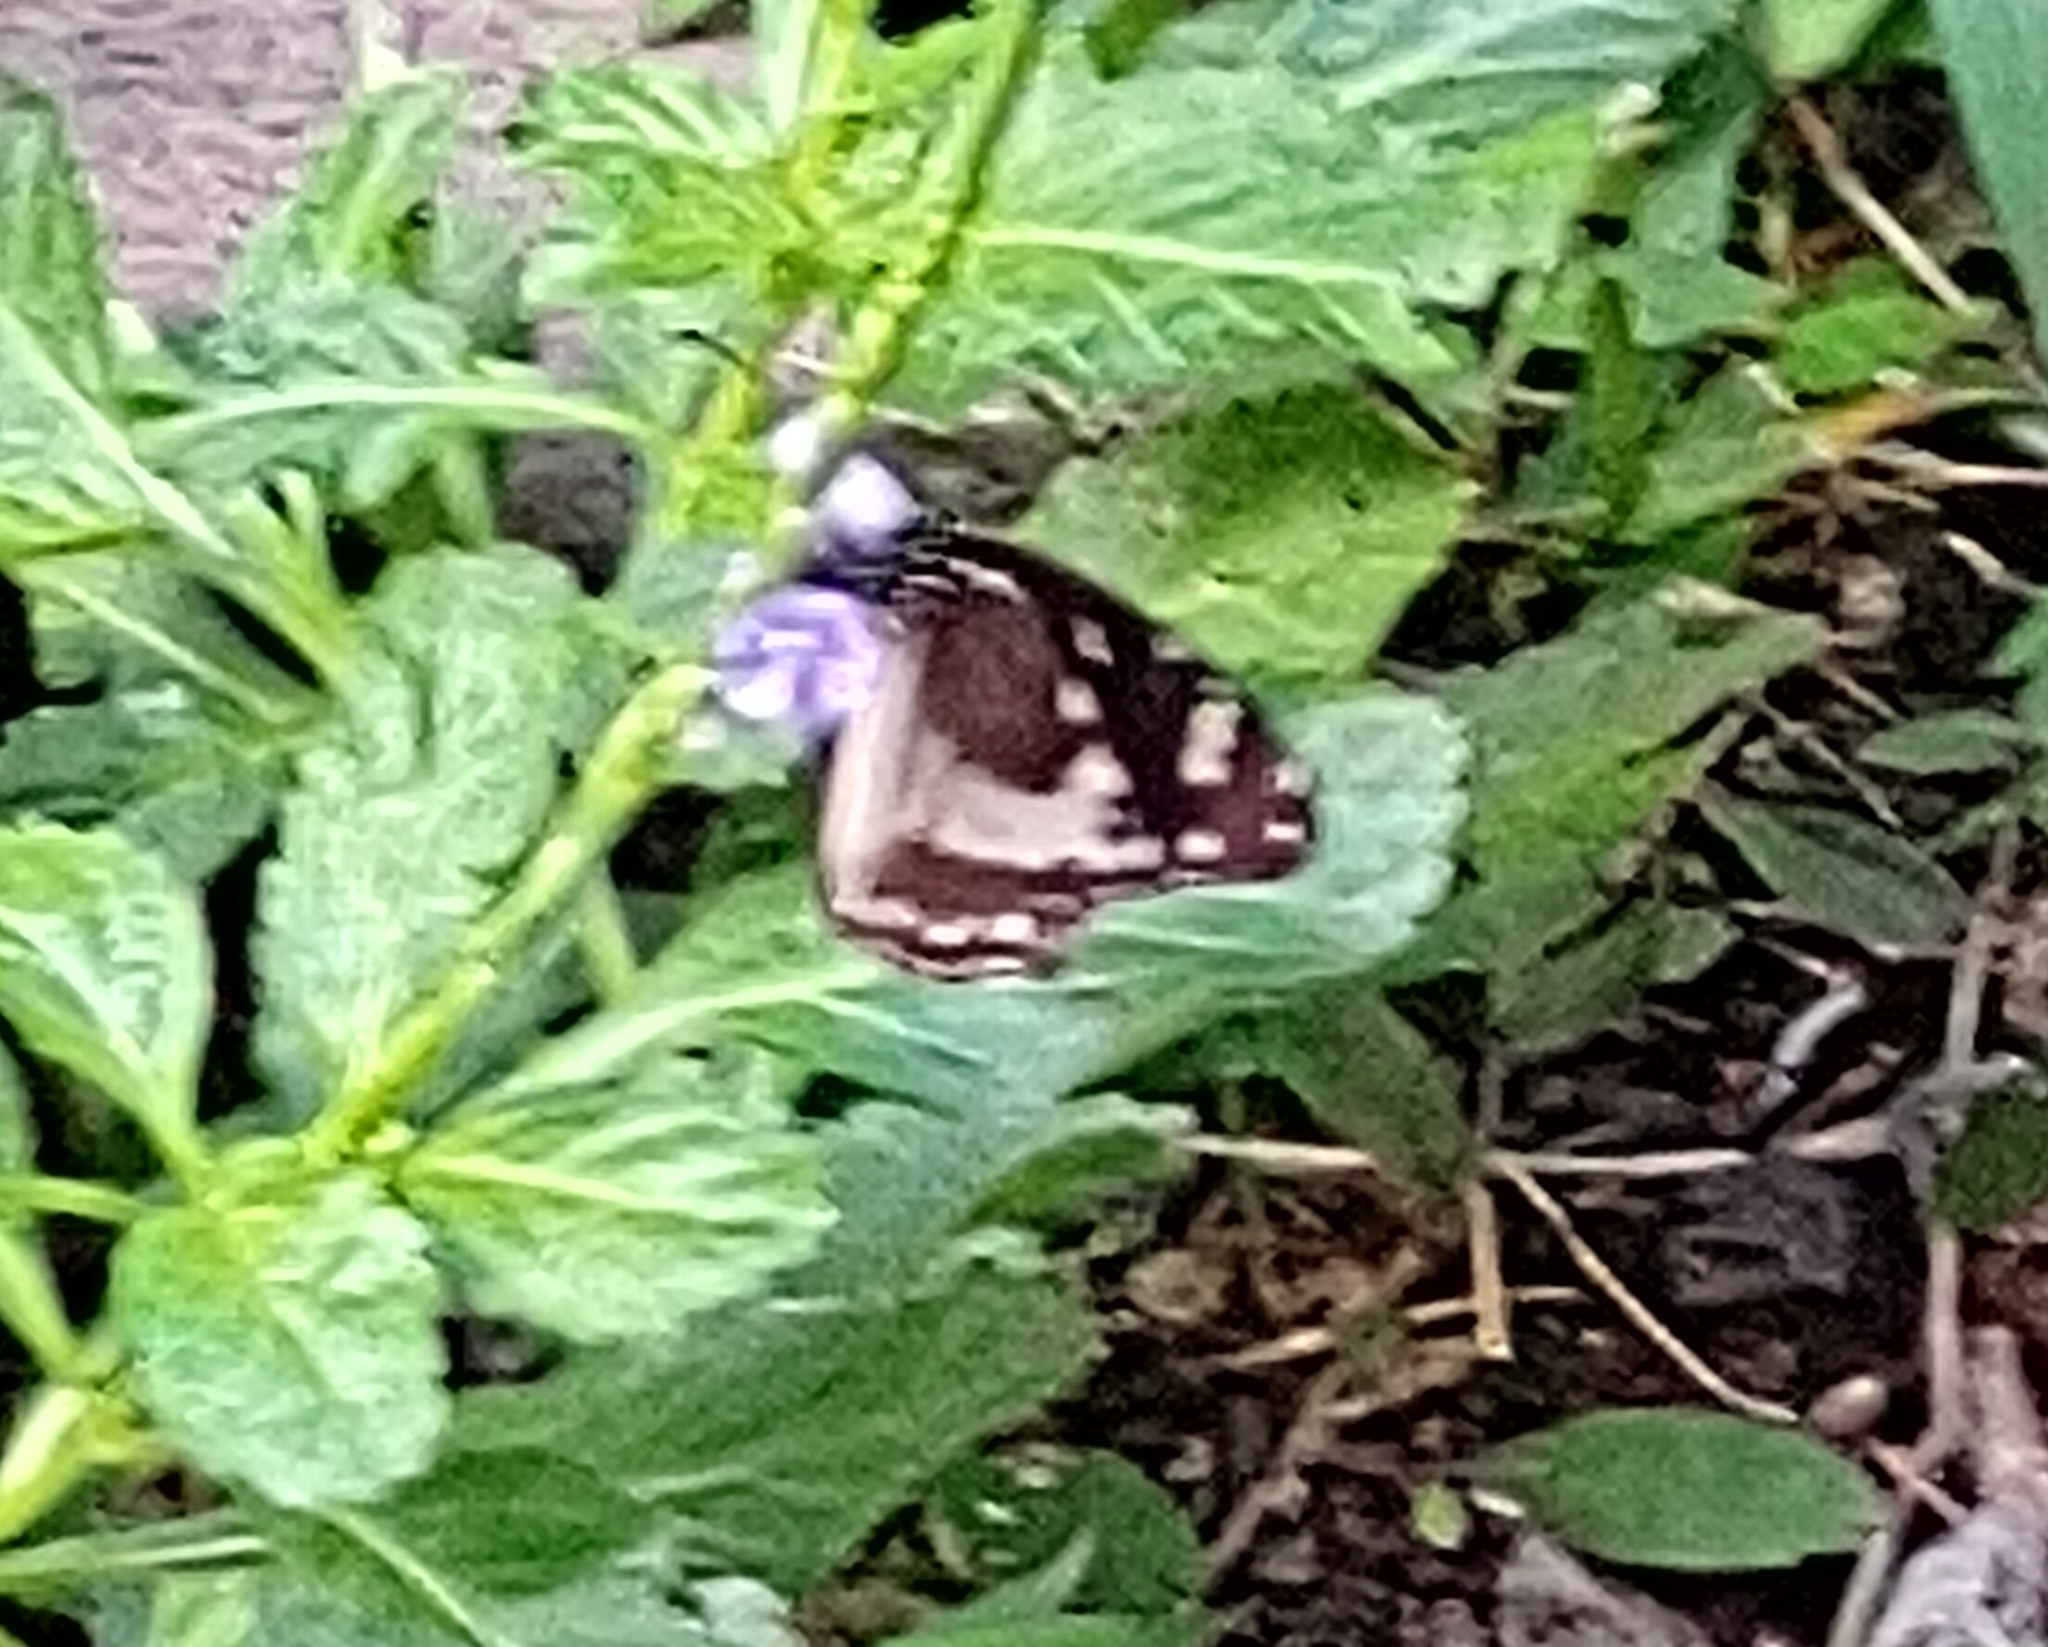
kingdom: Animalia
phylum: Arthropoda
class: Insecta
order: Lepidoptera
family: Nymphalidae
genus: Amauris
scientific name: Amauris phoedon
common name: Mauritian friar
